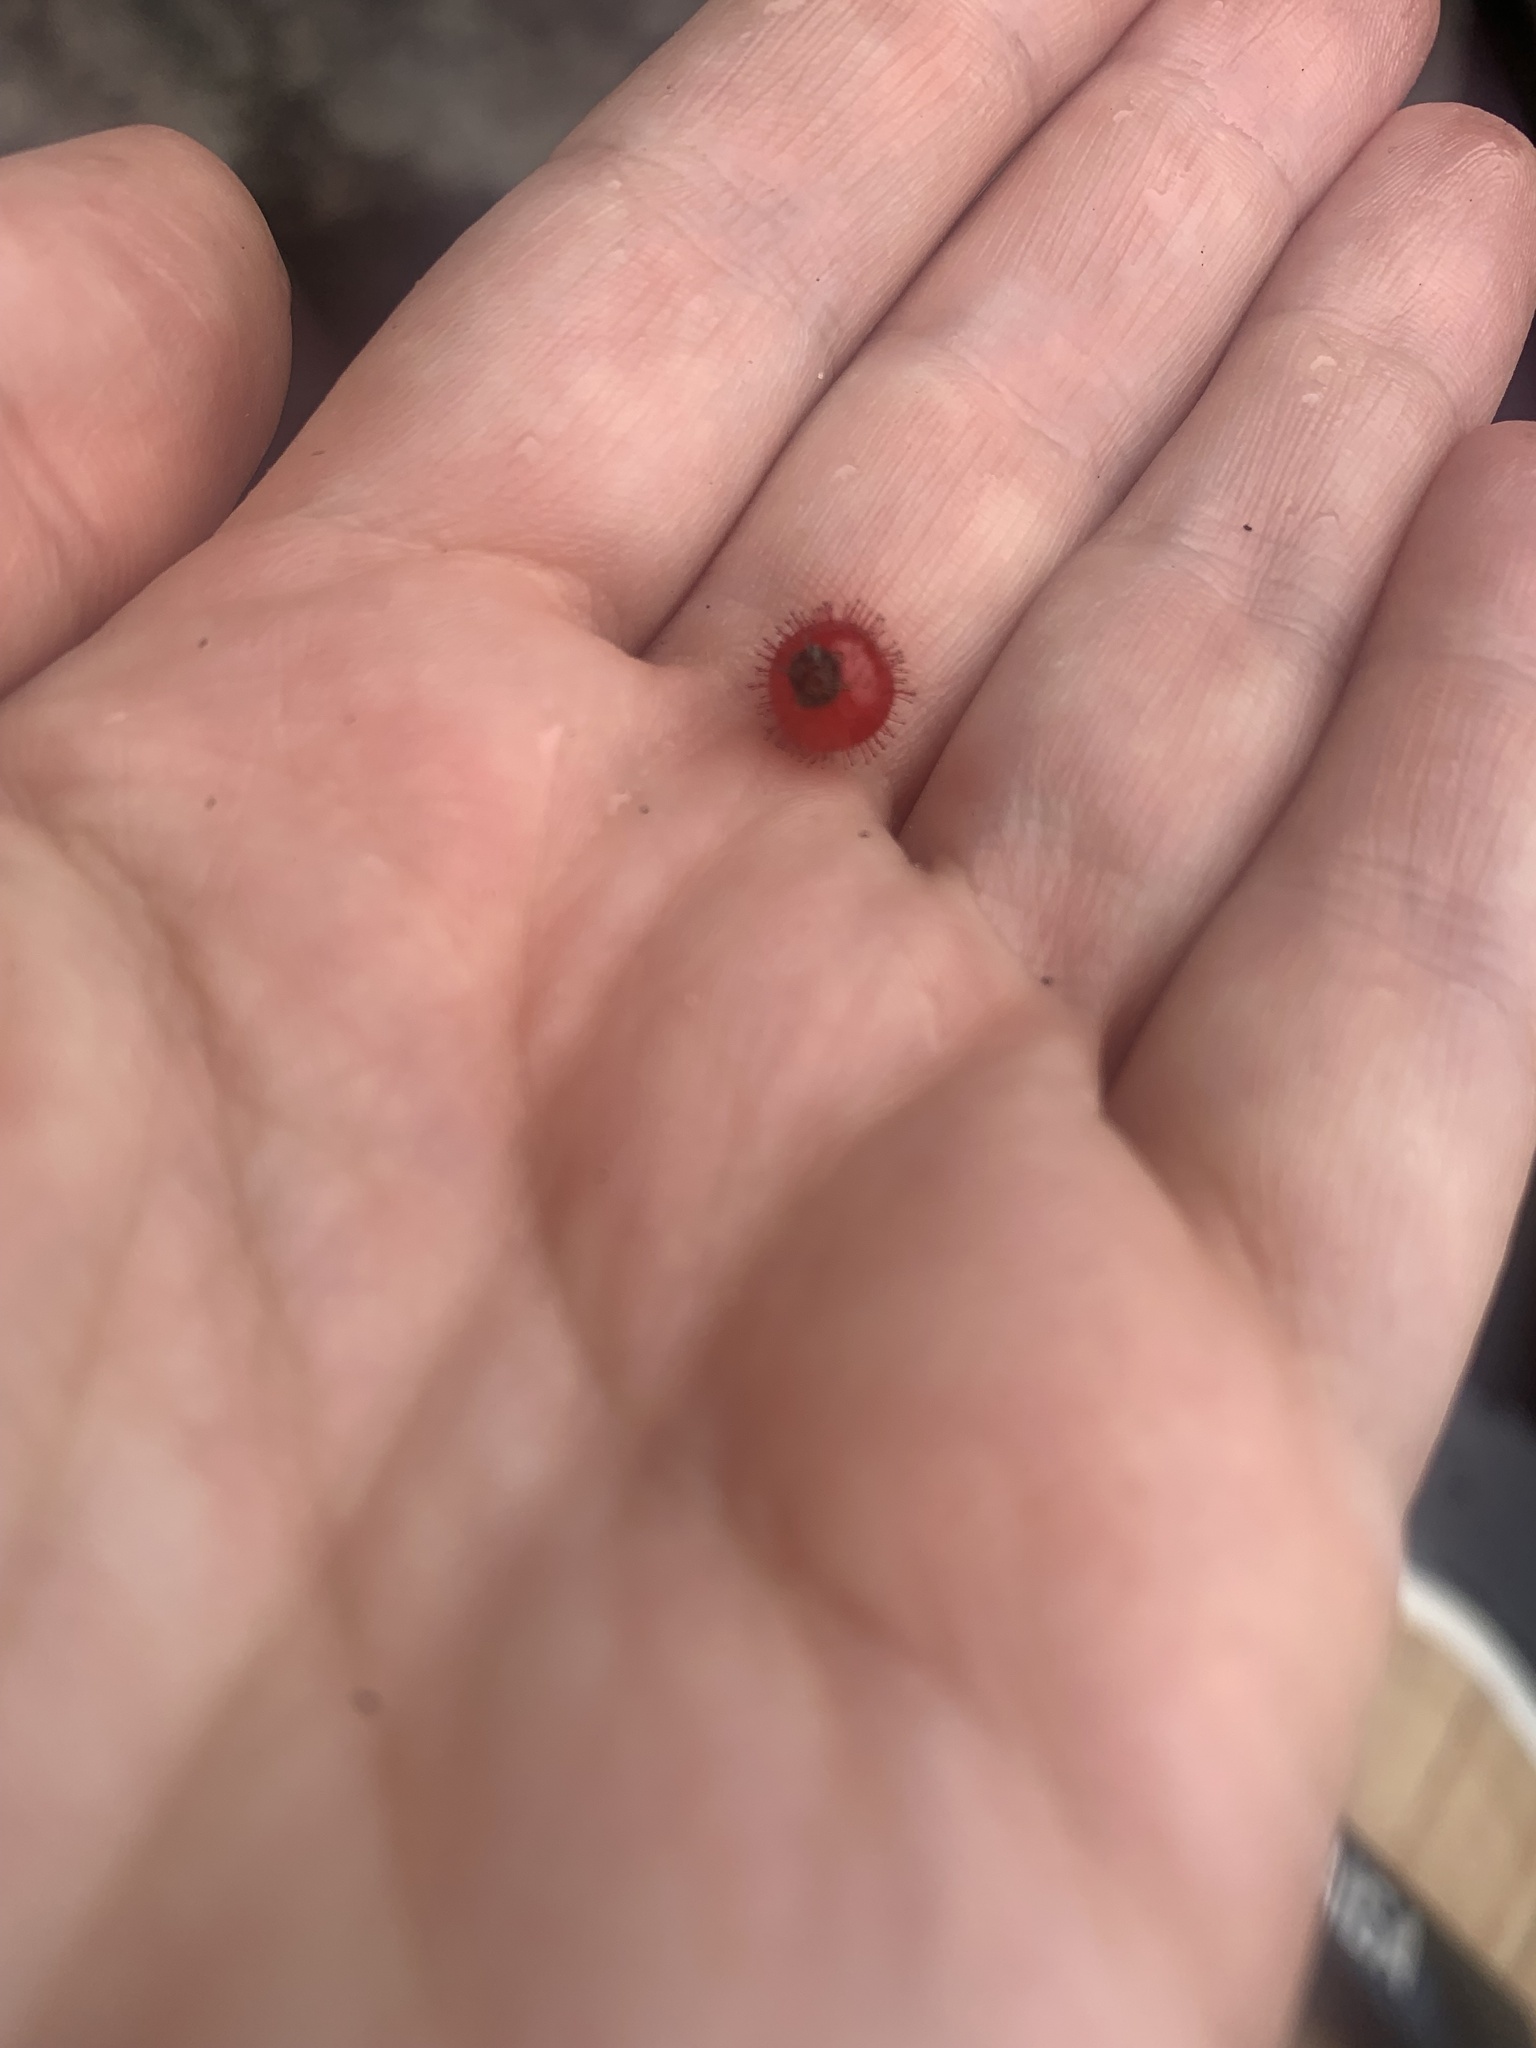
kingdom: Plantae
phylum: Tracheophyta
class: Magnoliopsida
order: Saxifragales
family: Grossulariaceae
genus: Ribes
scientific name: Ribes glandulosum
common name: Skunk currant
